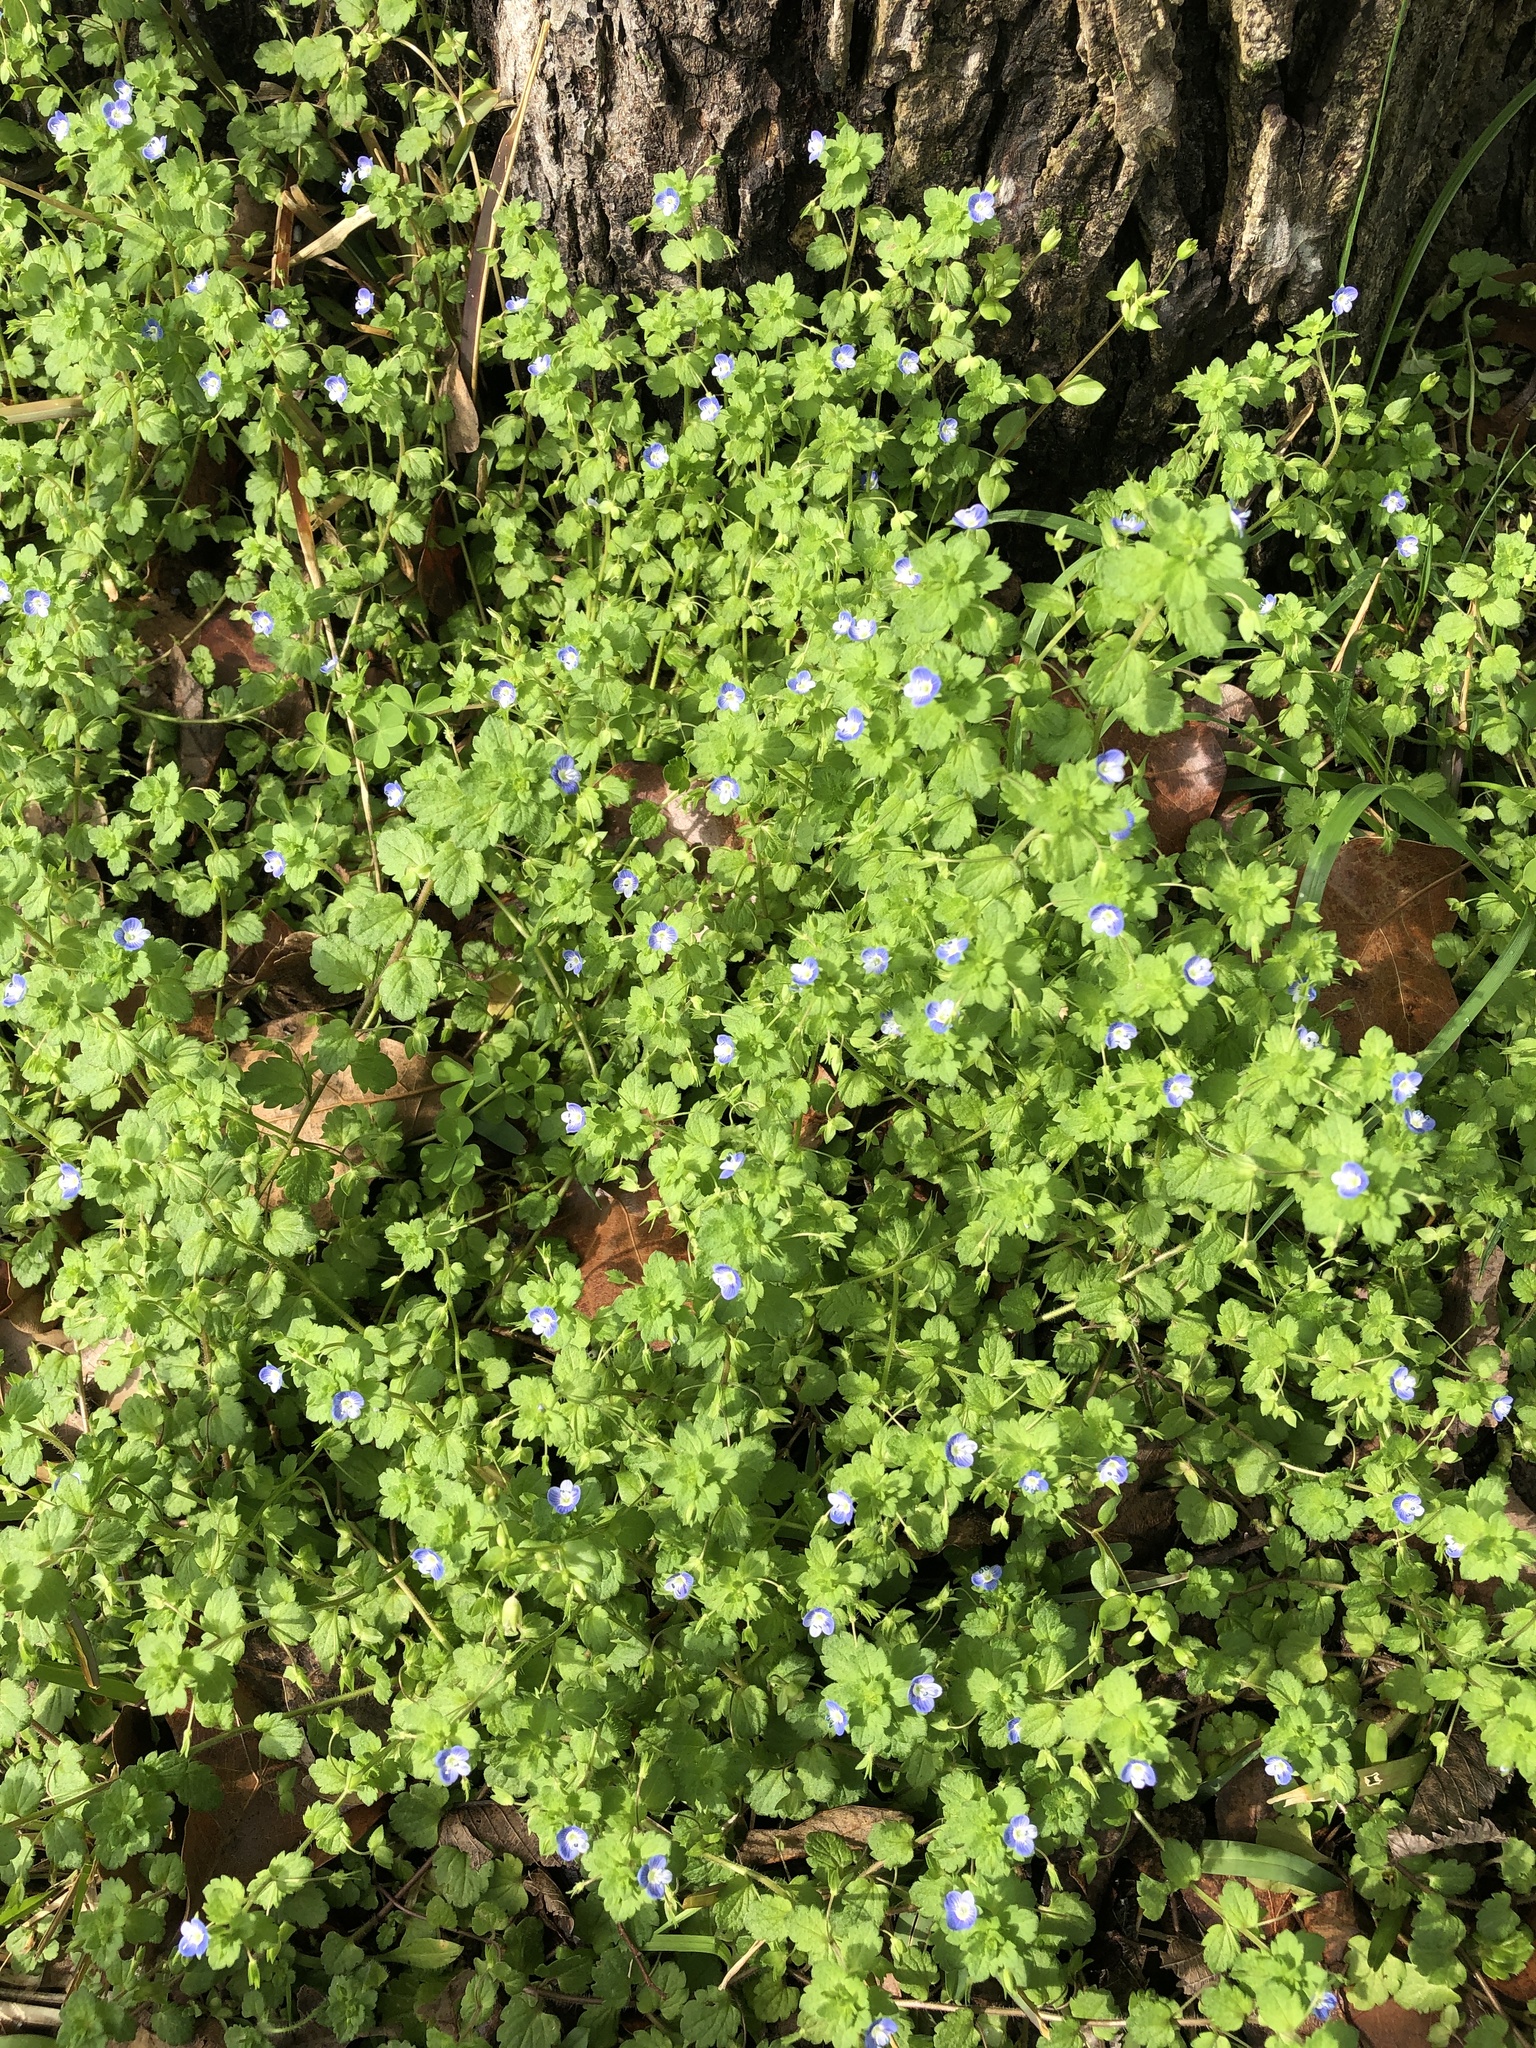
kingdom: Plantae
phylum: Tracheophyta
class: Magnoliopsida
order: Lamiales
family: Plantaginaceae
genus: Veronica
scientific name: Veronica persica
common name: Common field-speedwell
